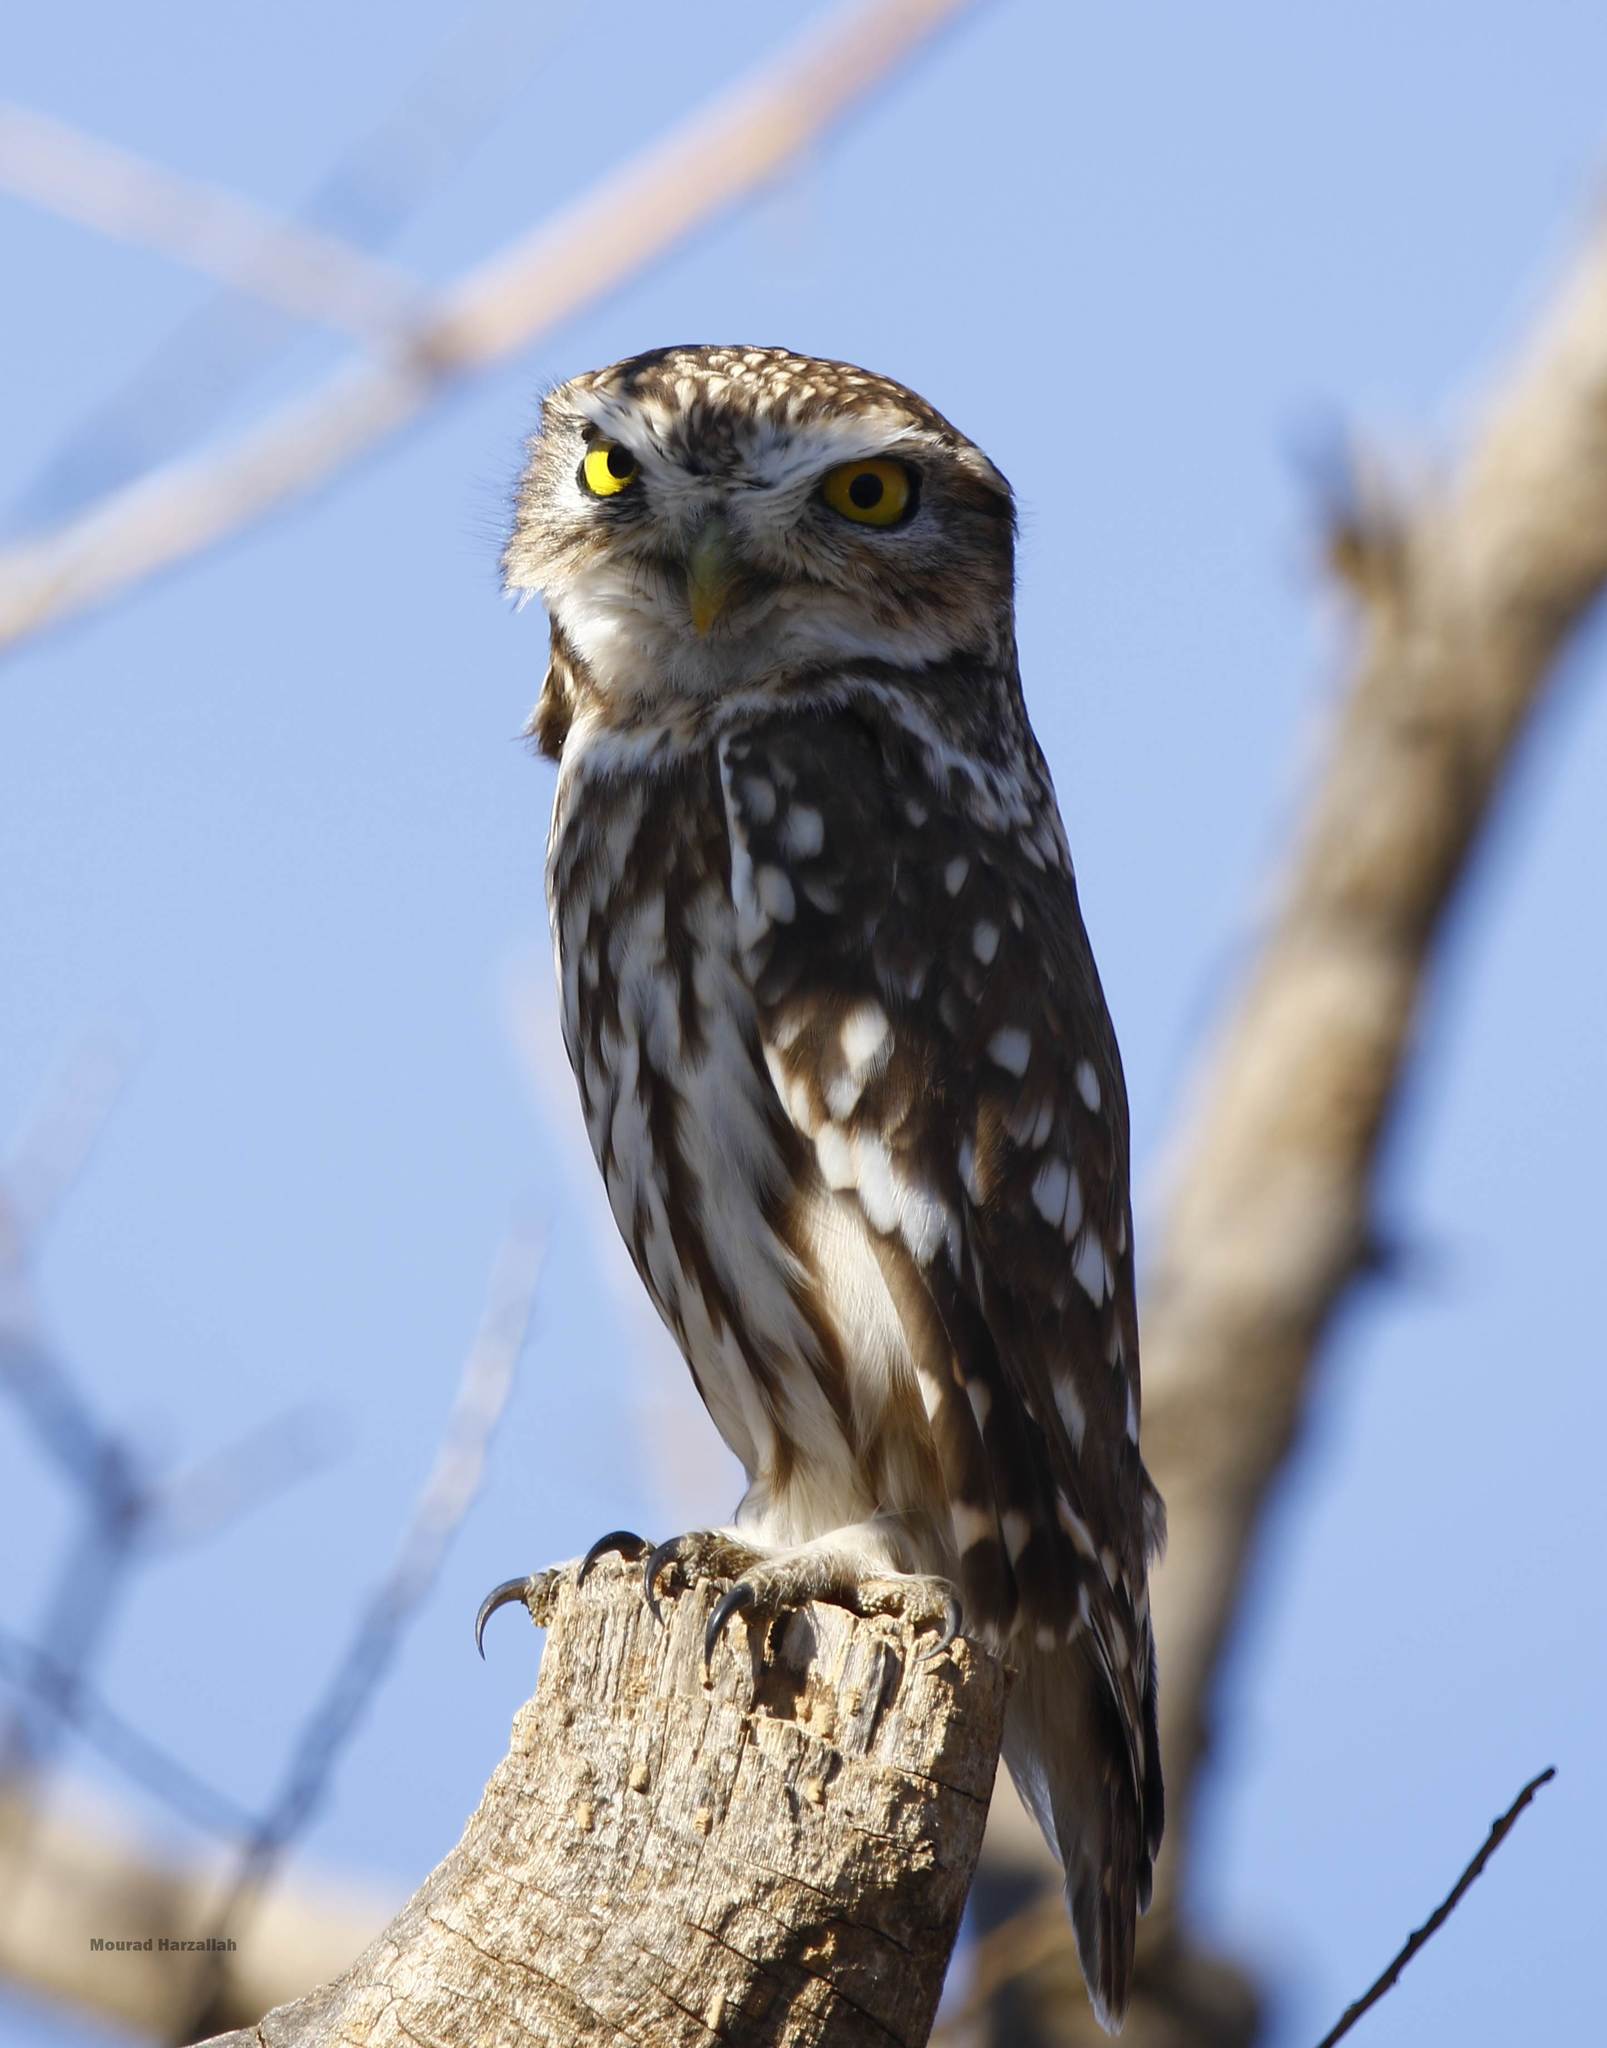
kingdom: Animalia
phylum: Chordata
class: Aves
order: Strigiformes
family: Strigidae
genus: Athene
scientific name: Athene noctua
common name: Little owl
